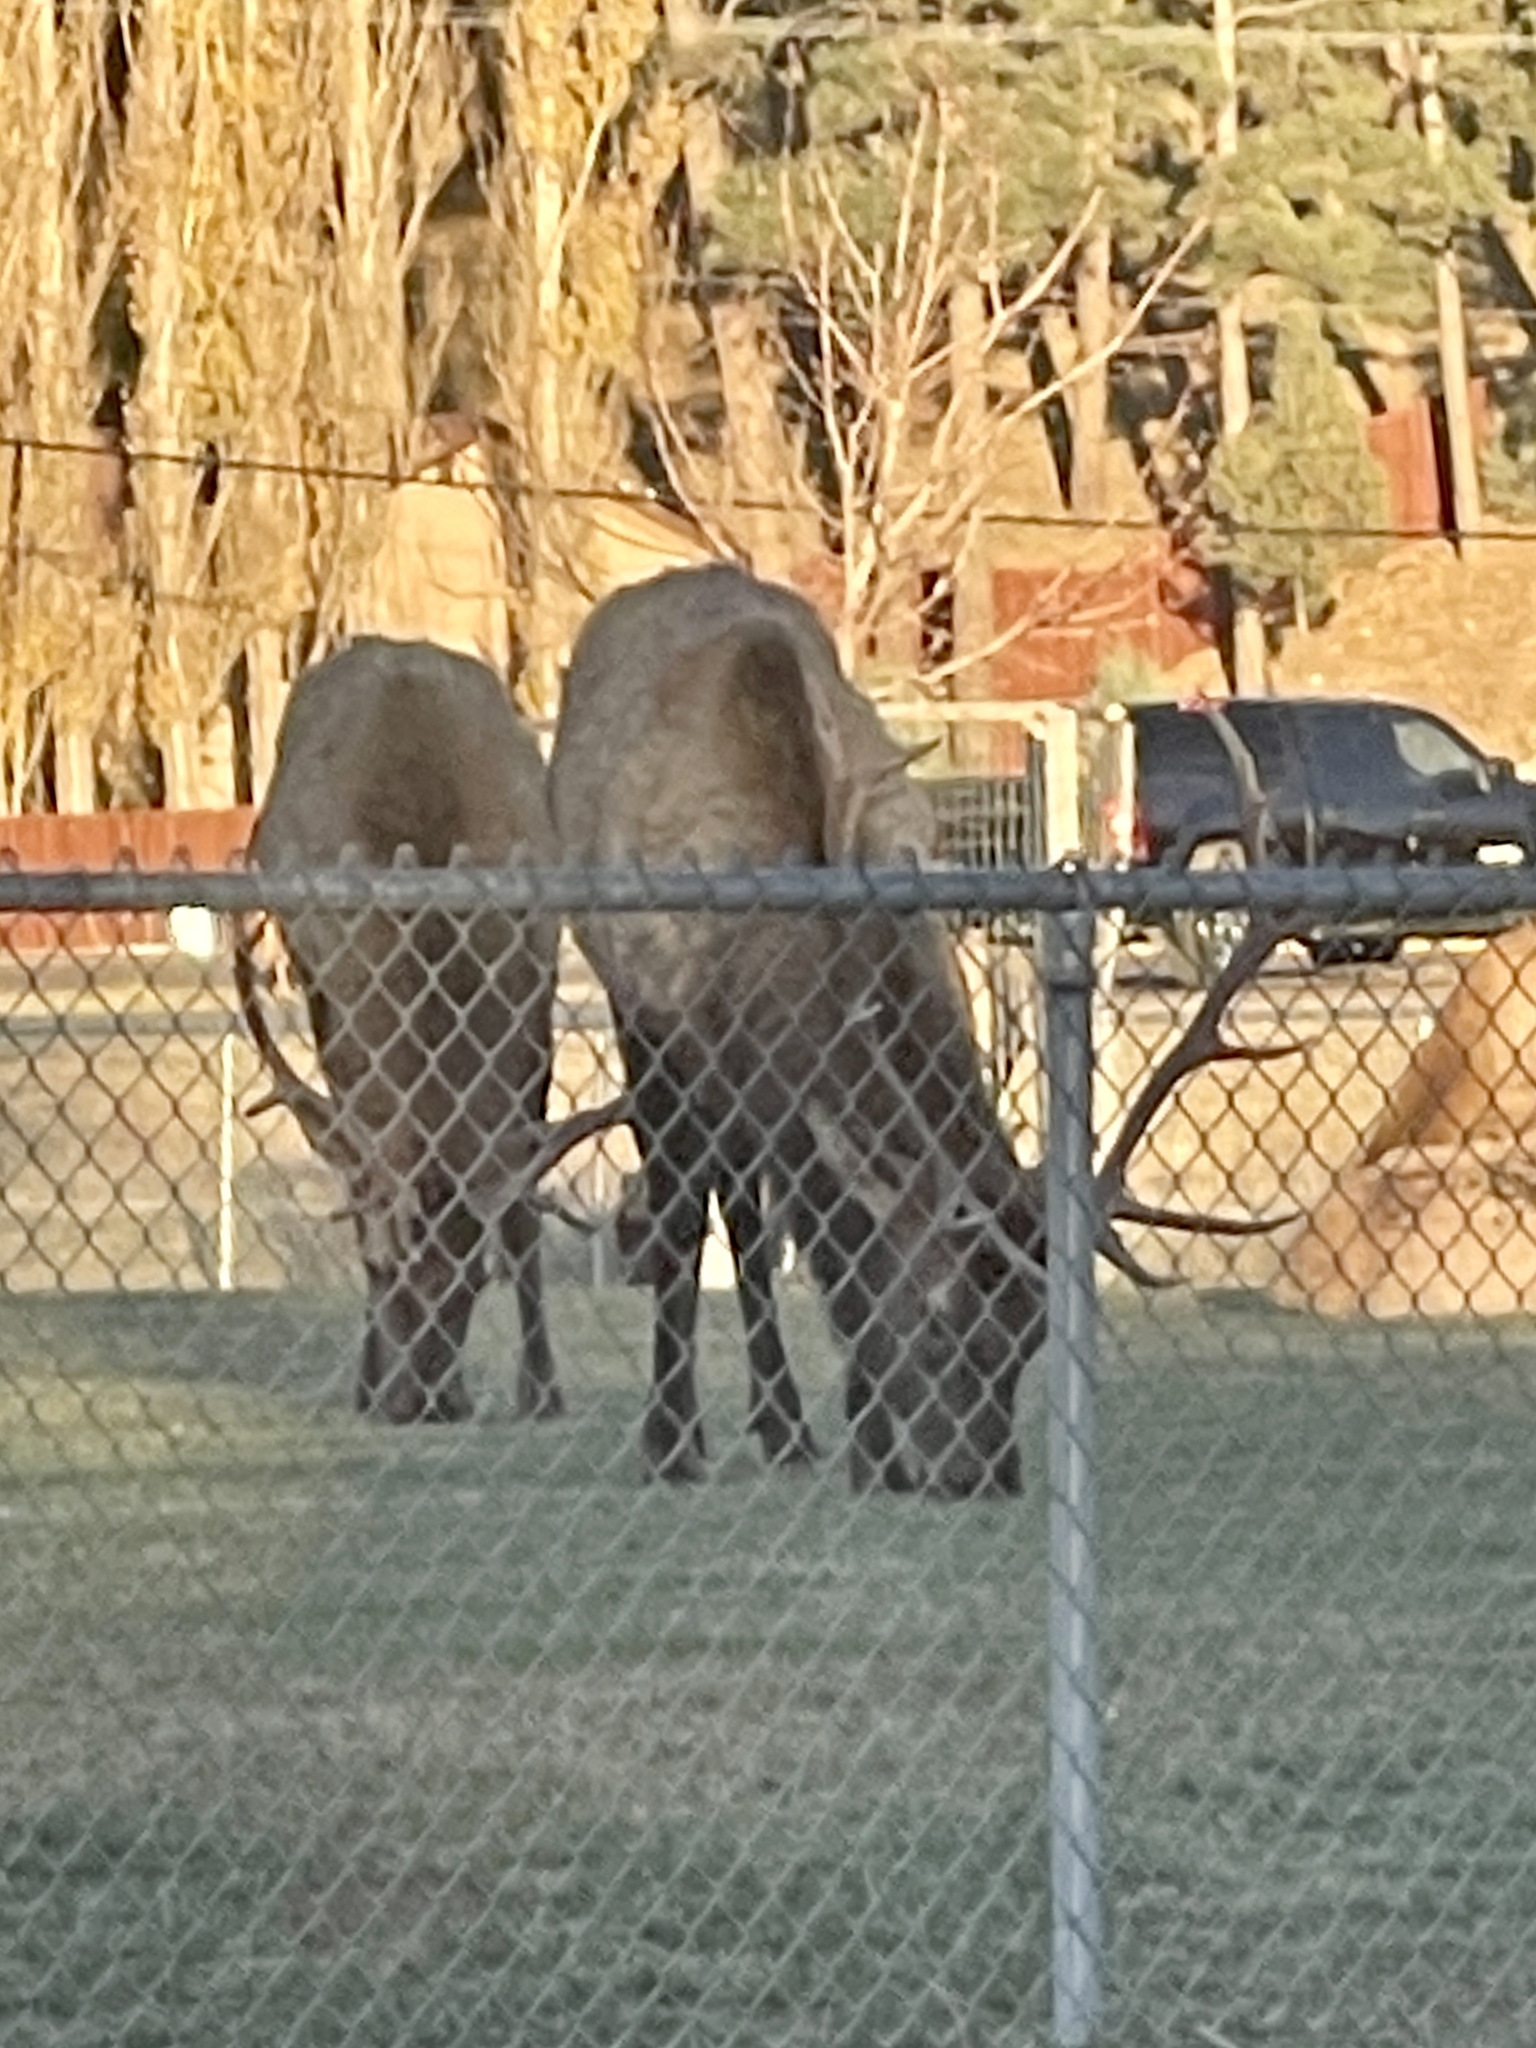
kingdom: Animalia
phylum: Chordata
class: Mammalia
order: Artiodactyla
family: Cervidae
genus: Cervus
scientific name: Cervus elaphus
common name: Red deer
